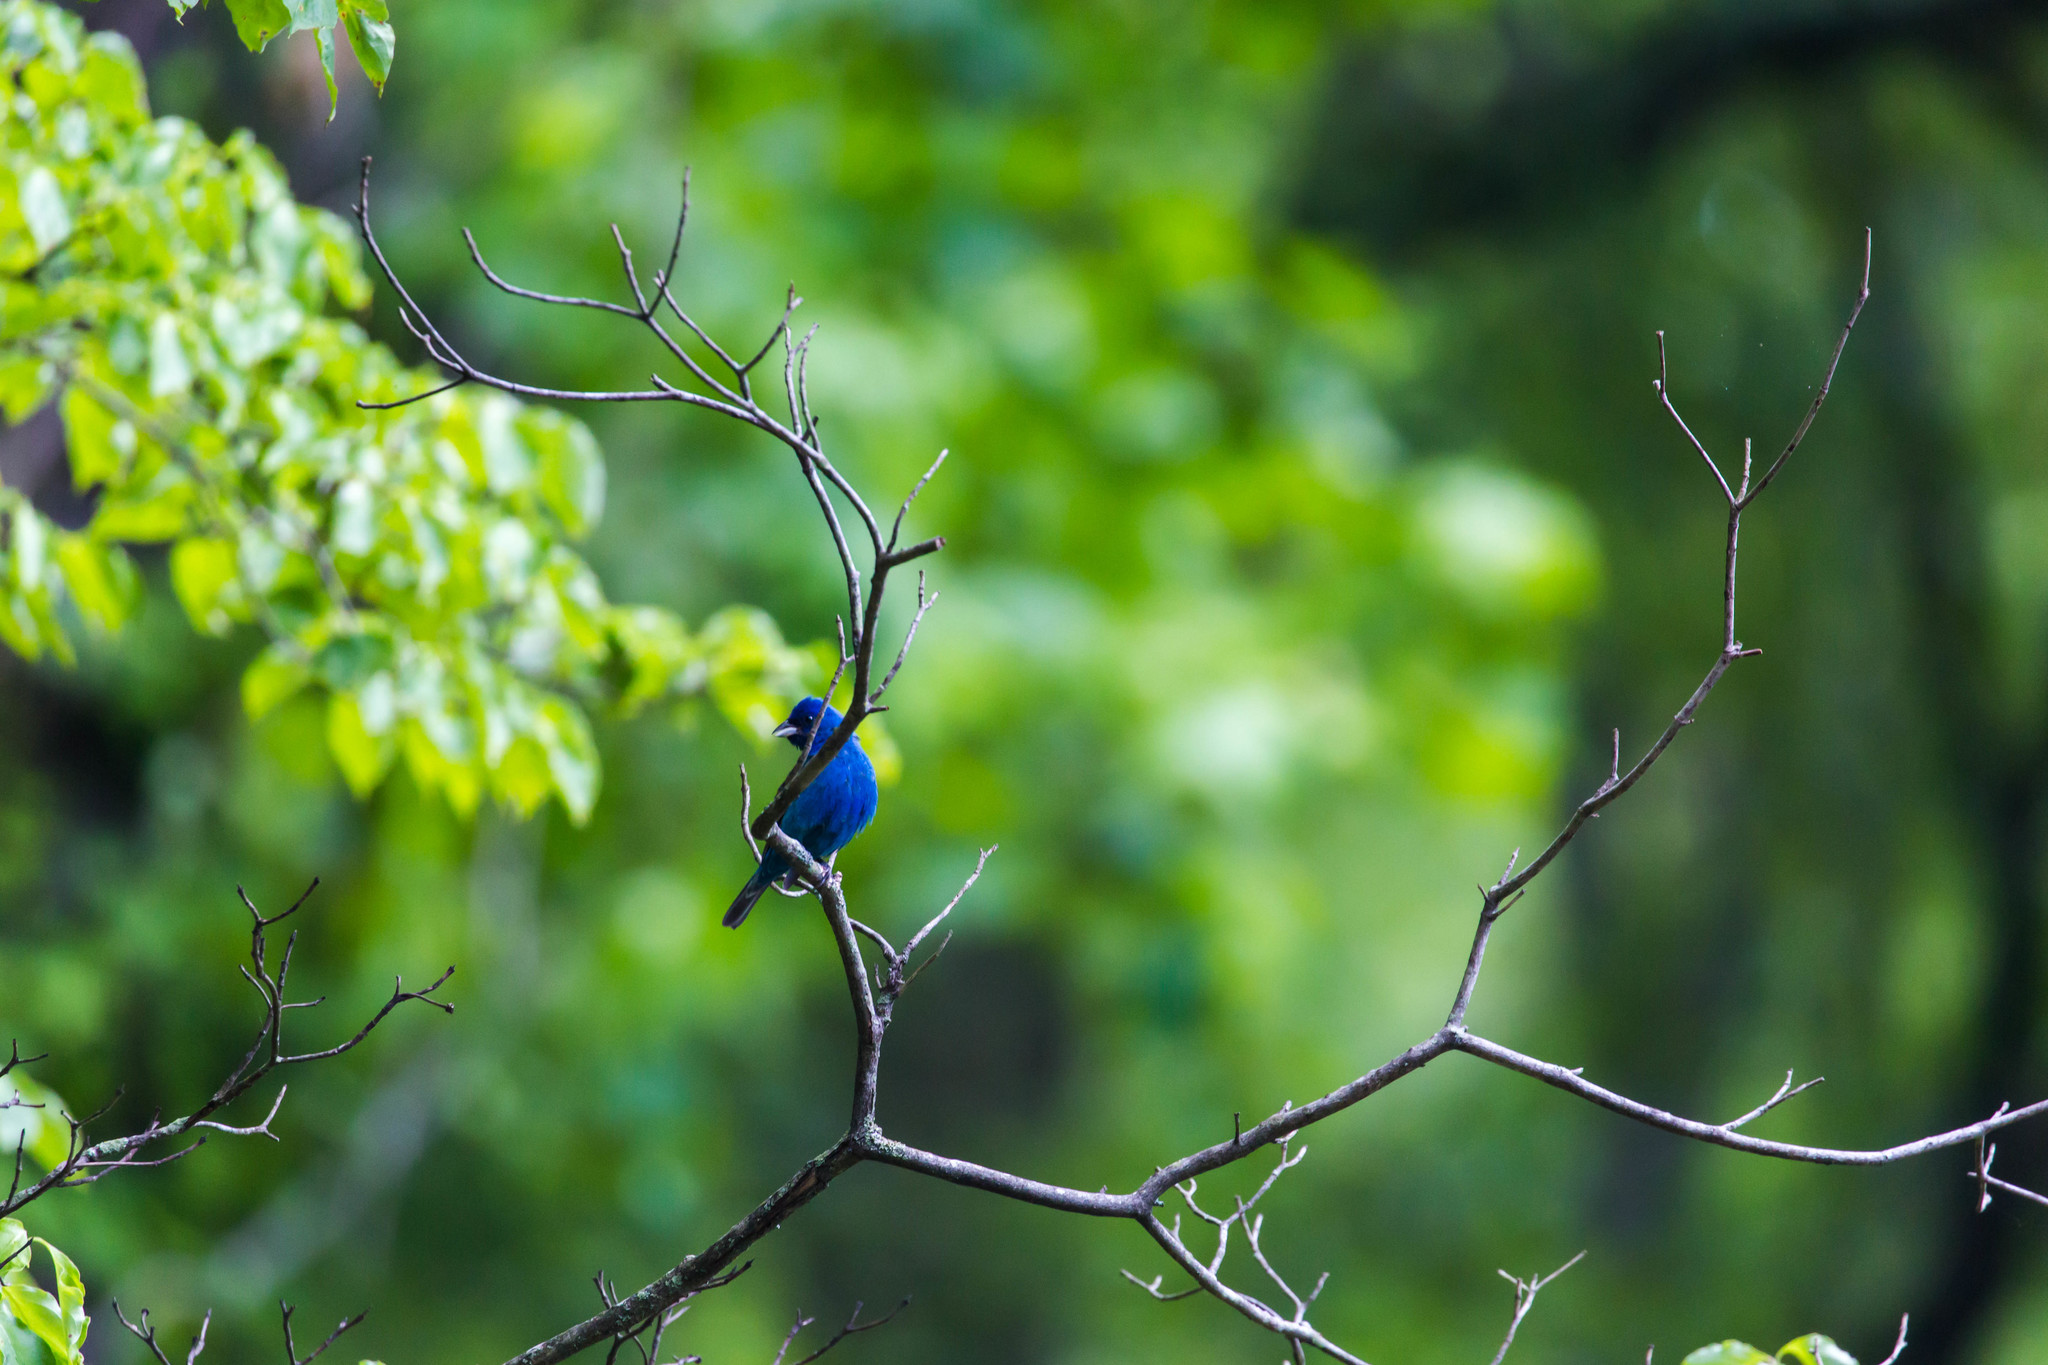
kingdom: Animalia
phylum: Chordata
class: Aves
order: Passeriformes
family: Cardinalidae
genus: Passerina
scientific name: Passerina cyanea
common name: Indigo bunting
